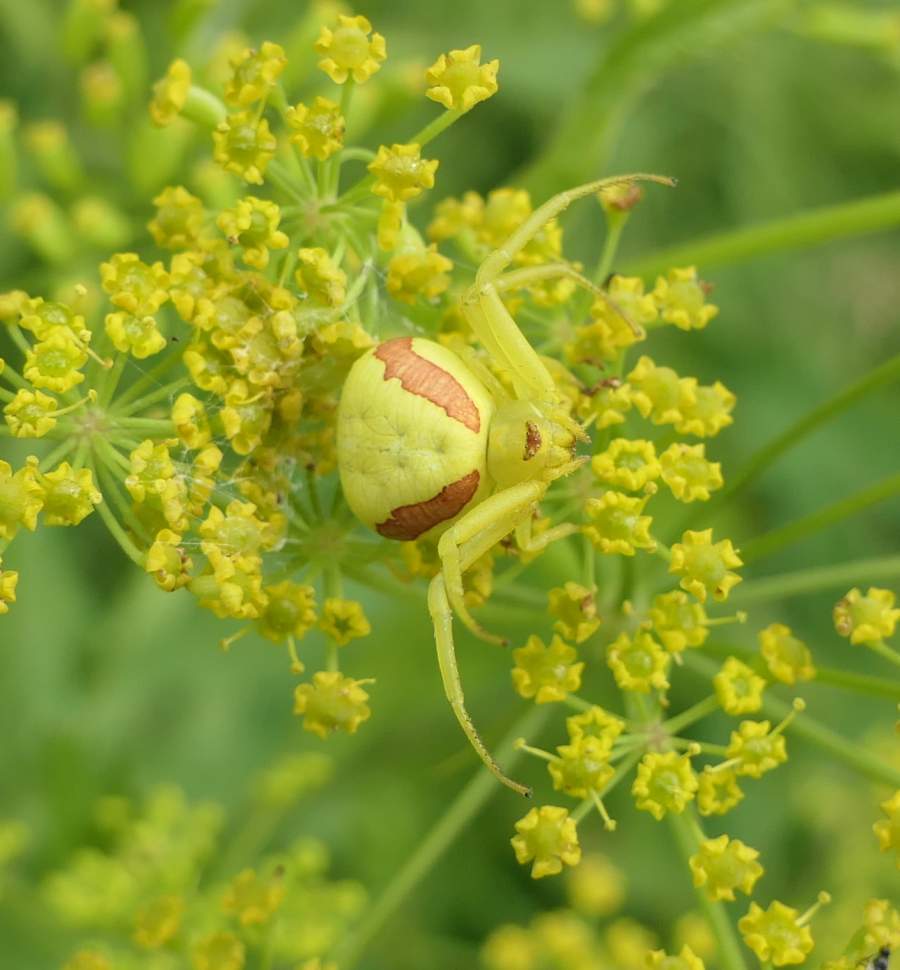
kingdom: Animalia
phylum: Arthropoda
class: Arachnida
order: Araneae
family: Thomisidae
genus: Misumena
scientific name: Misumena vatia
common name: Goldenrod crab spider
